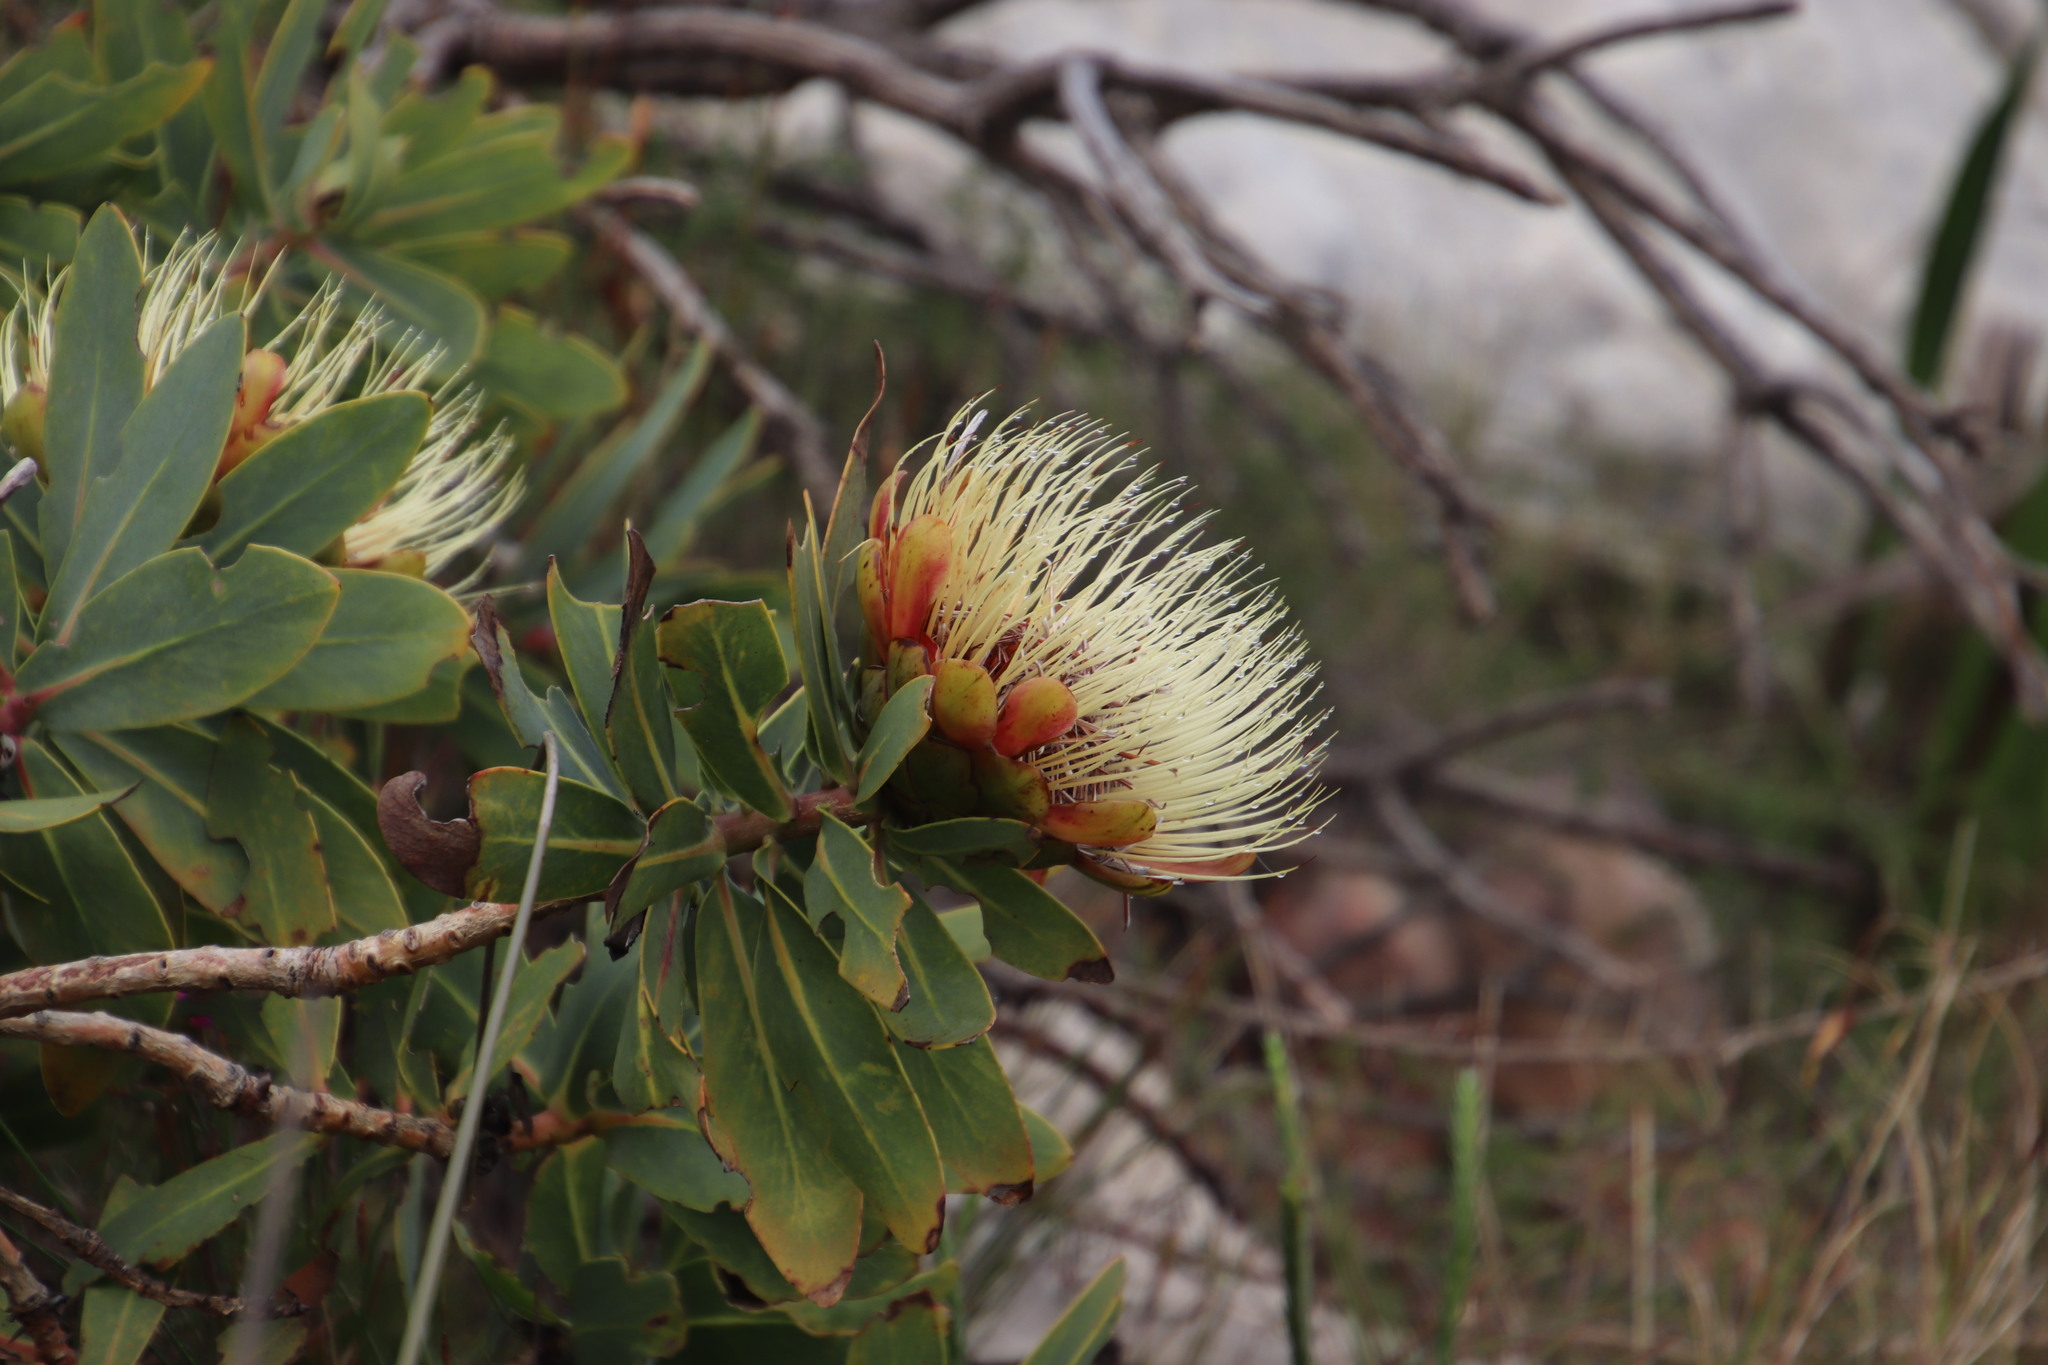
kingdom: Plantae
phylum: Tracheophyta
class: Magnoliopsida
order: Proteales
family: Proteaceae
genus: Protea
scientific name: Protea nitida
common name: Tree protea
